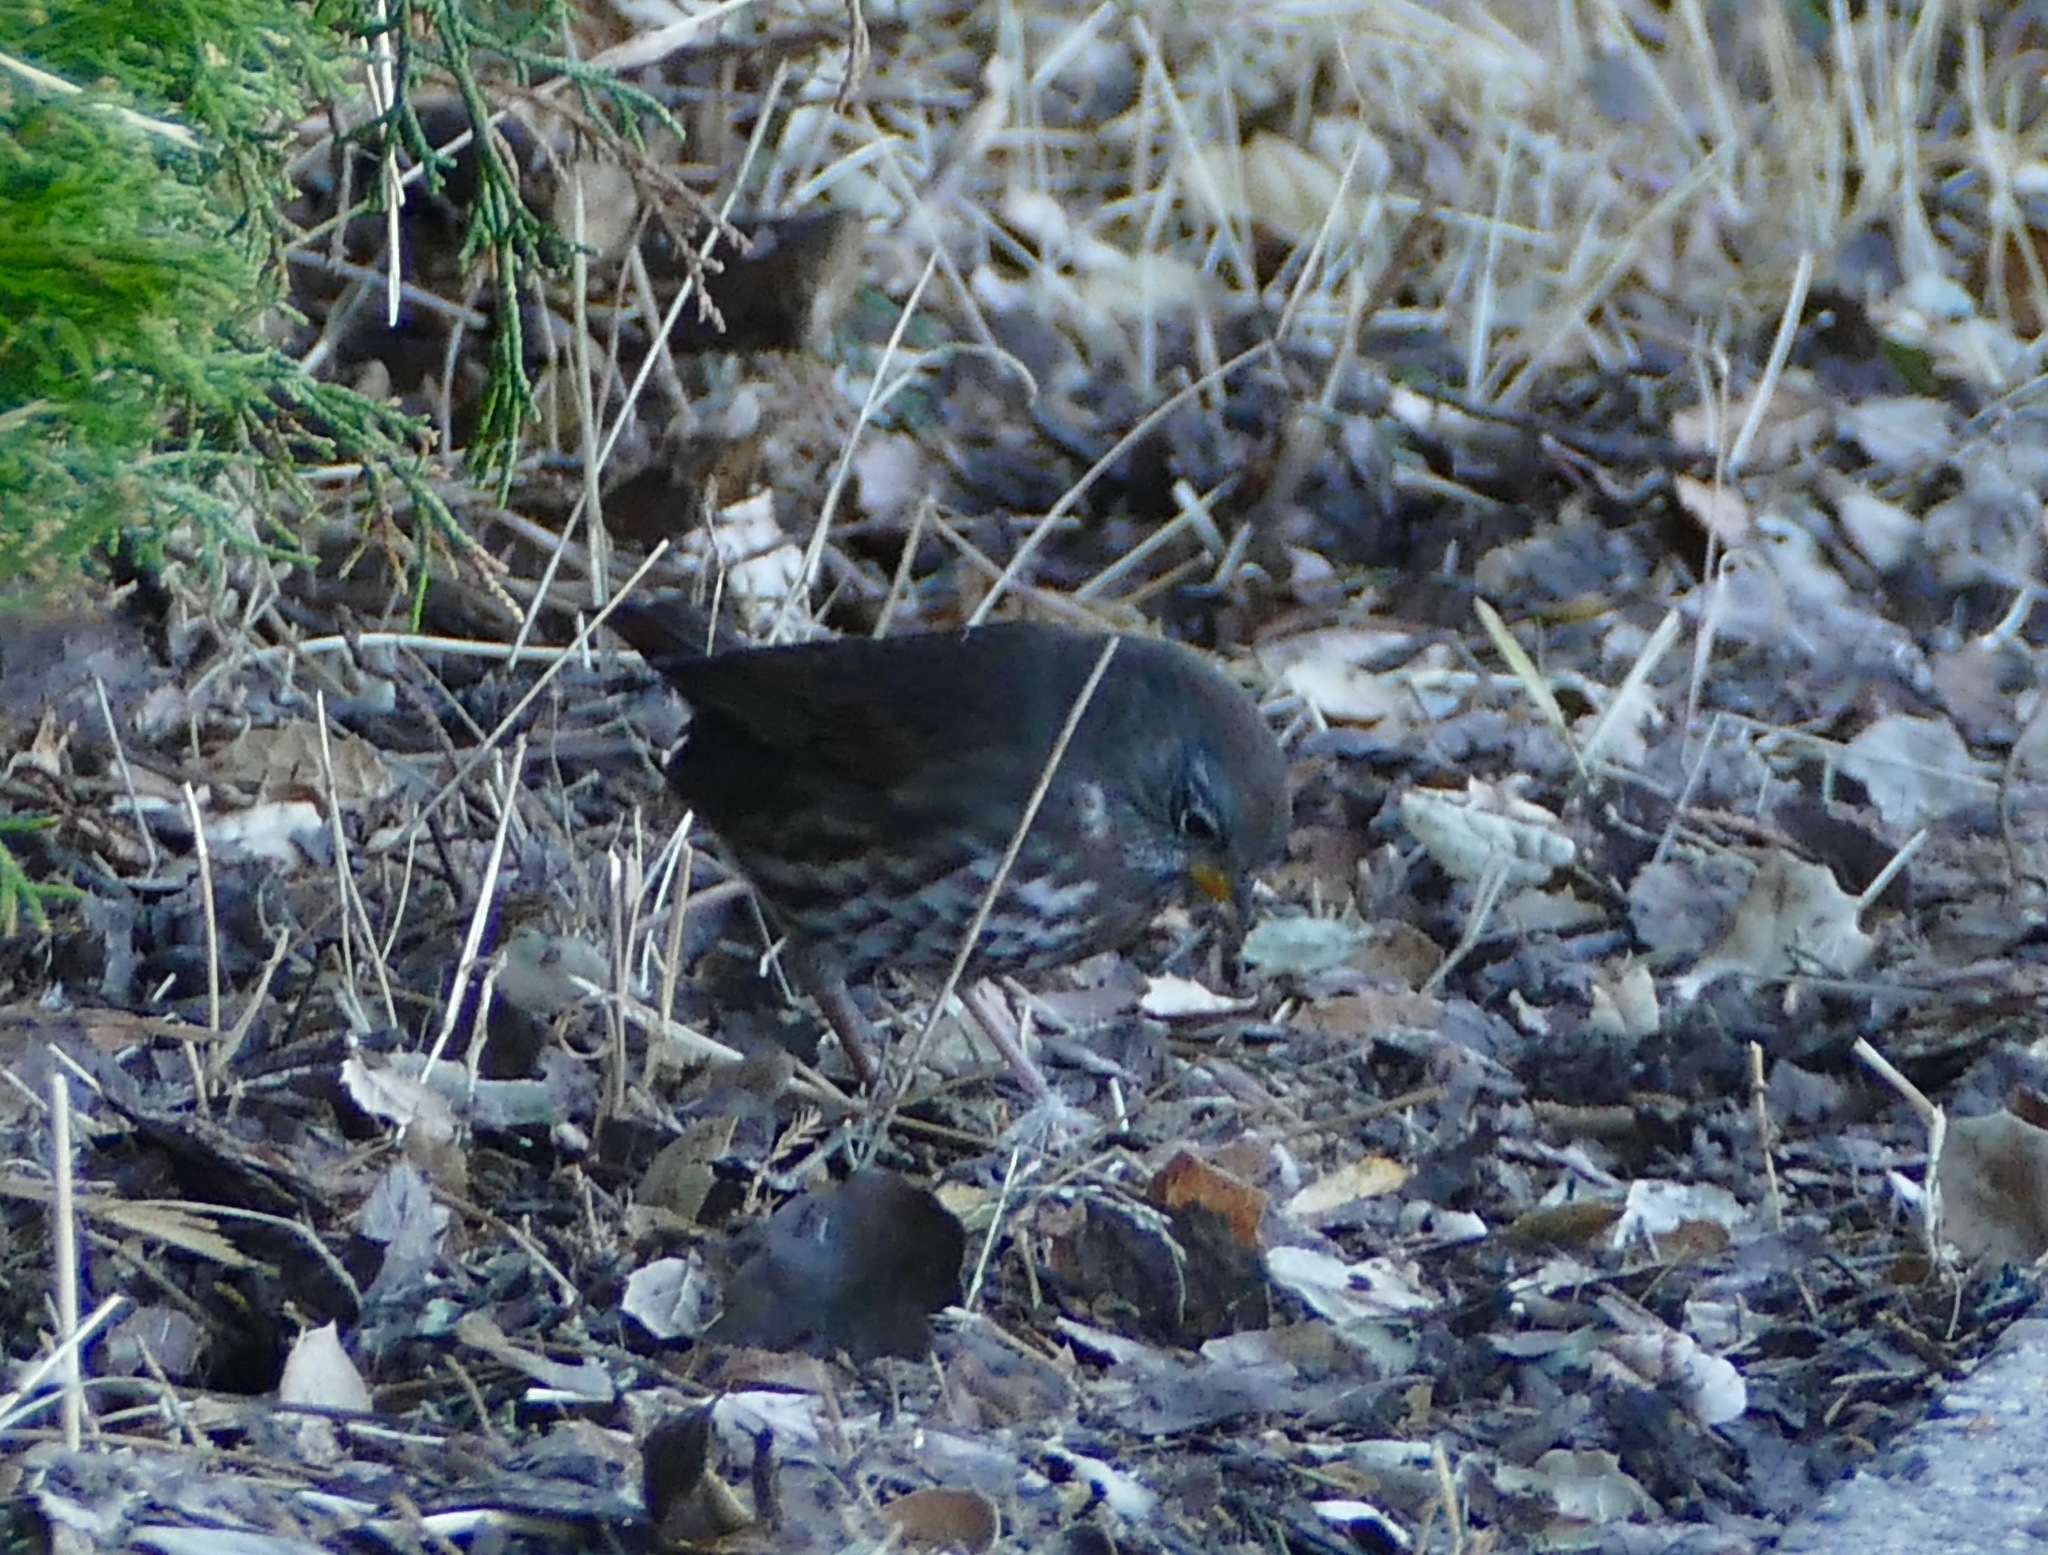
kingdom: Animalia
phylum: Chordata
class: Aves
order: Passeriformes
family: Passerellidae
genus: Passerella
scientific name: Passerella iliaca
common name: Fox sparrow
